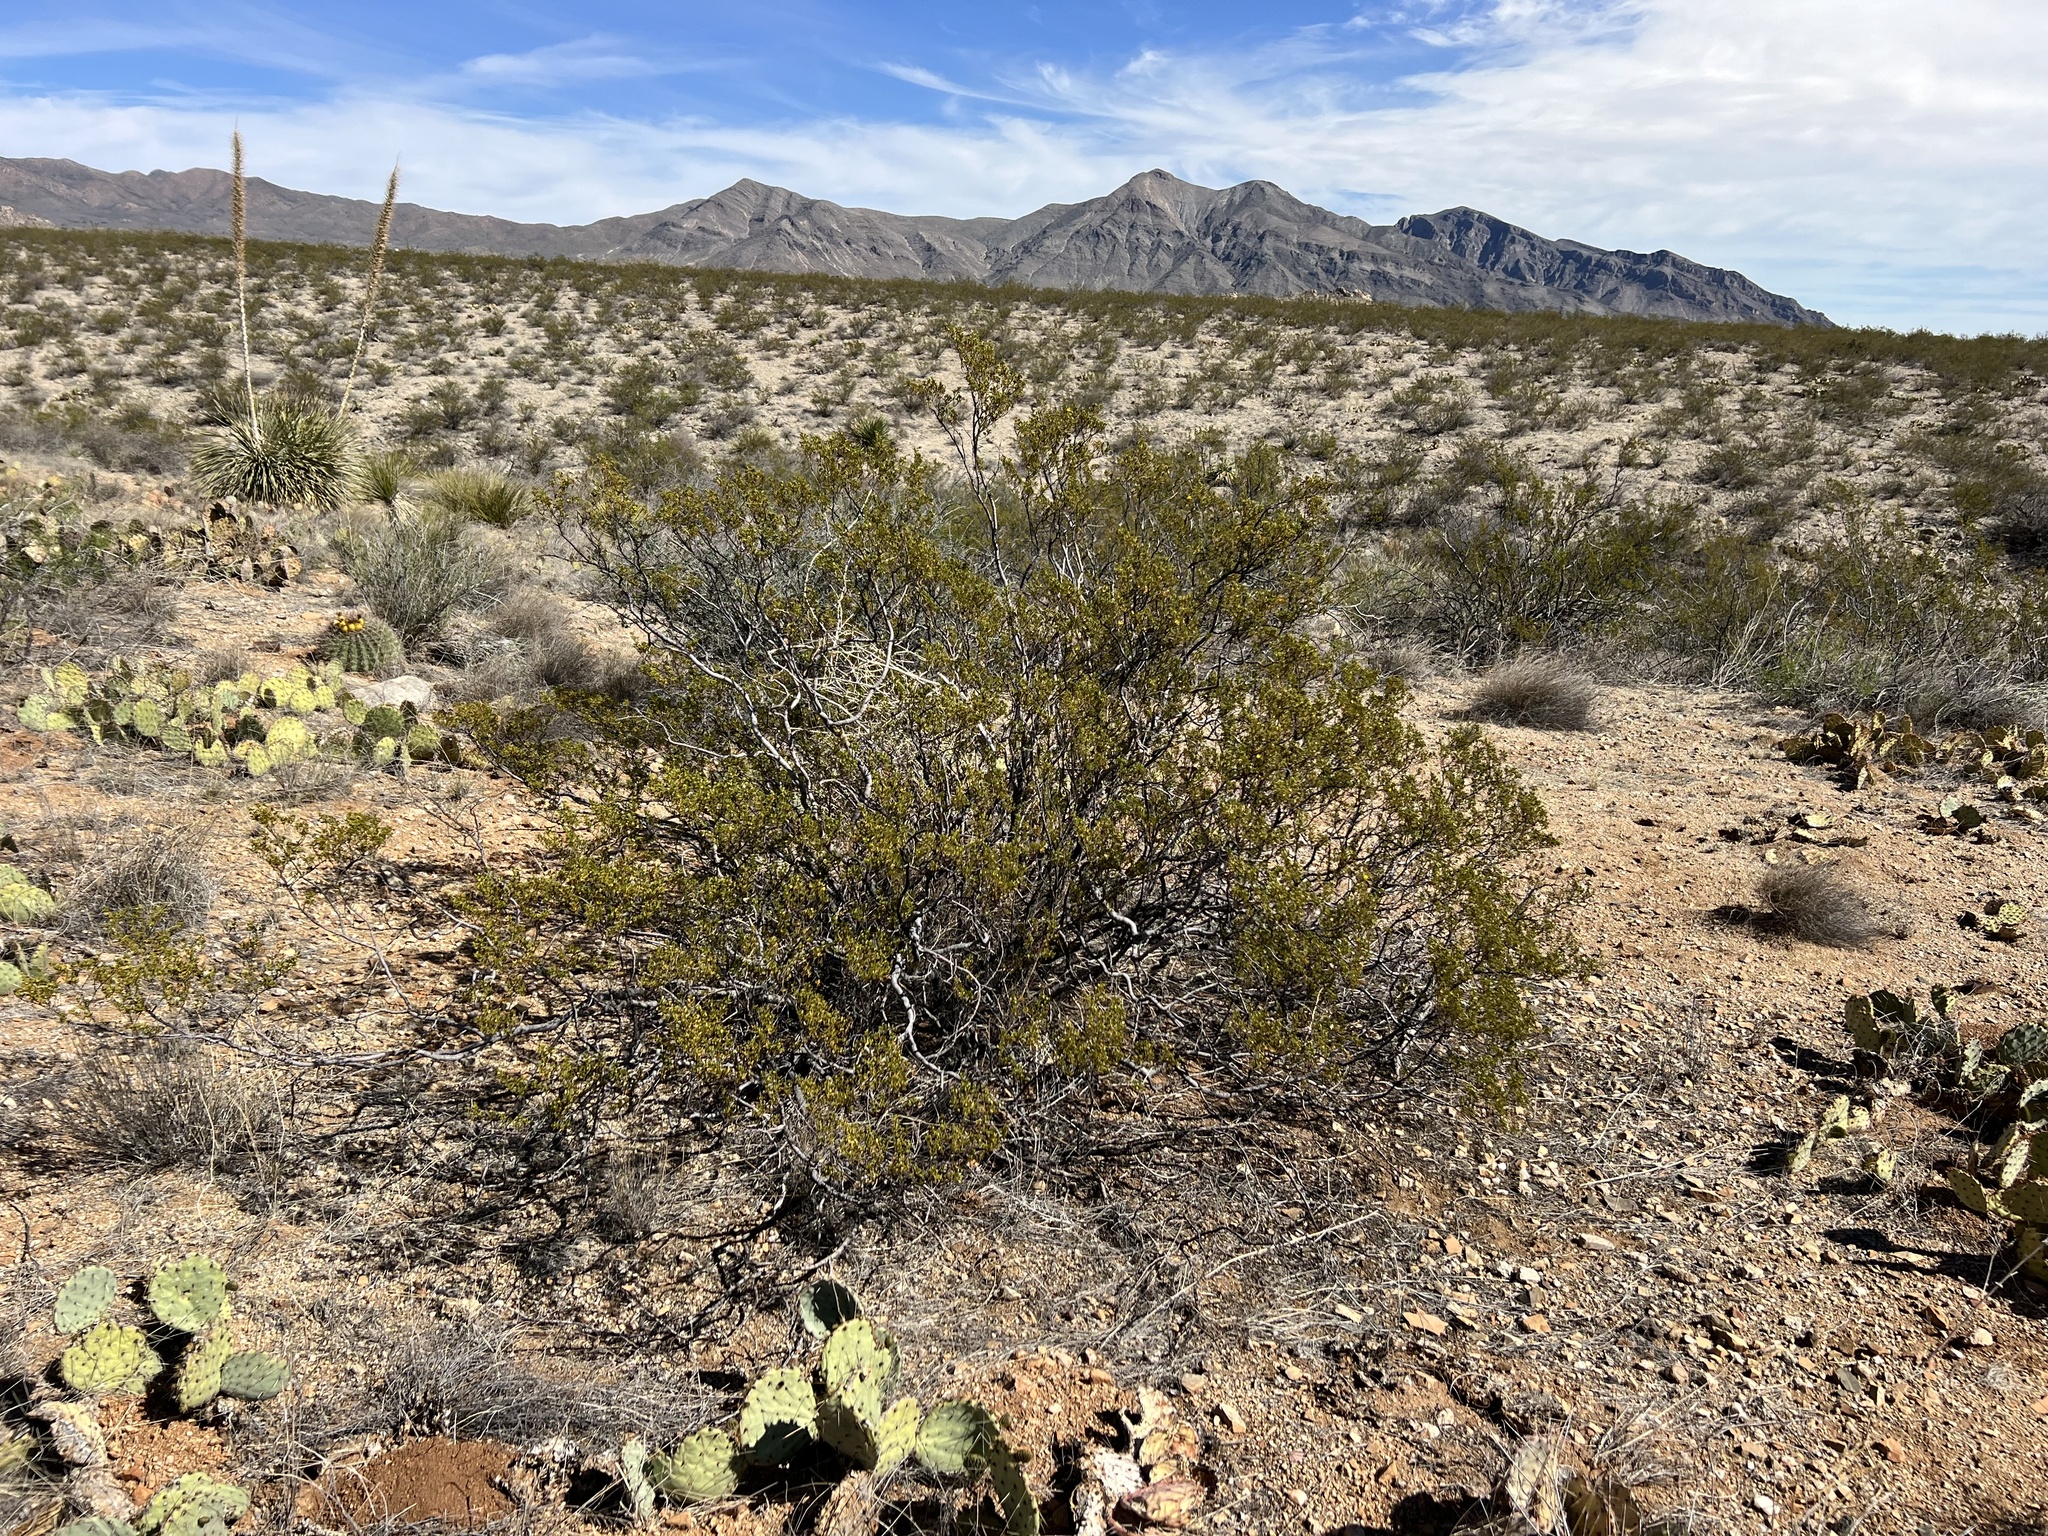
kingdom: Plantae
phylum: Tracheophyta
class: Magnoliopsida
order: Zygophyllales
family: Zygophyllaceae
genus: Larrea
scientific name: Larrea tridentata
